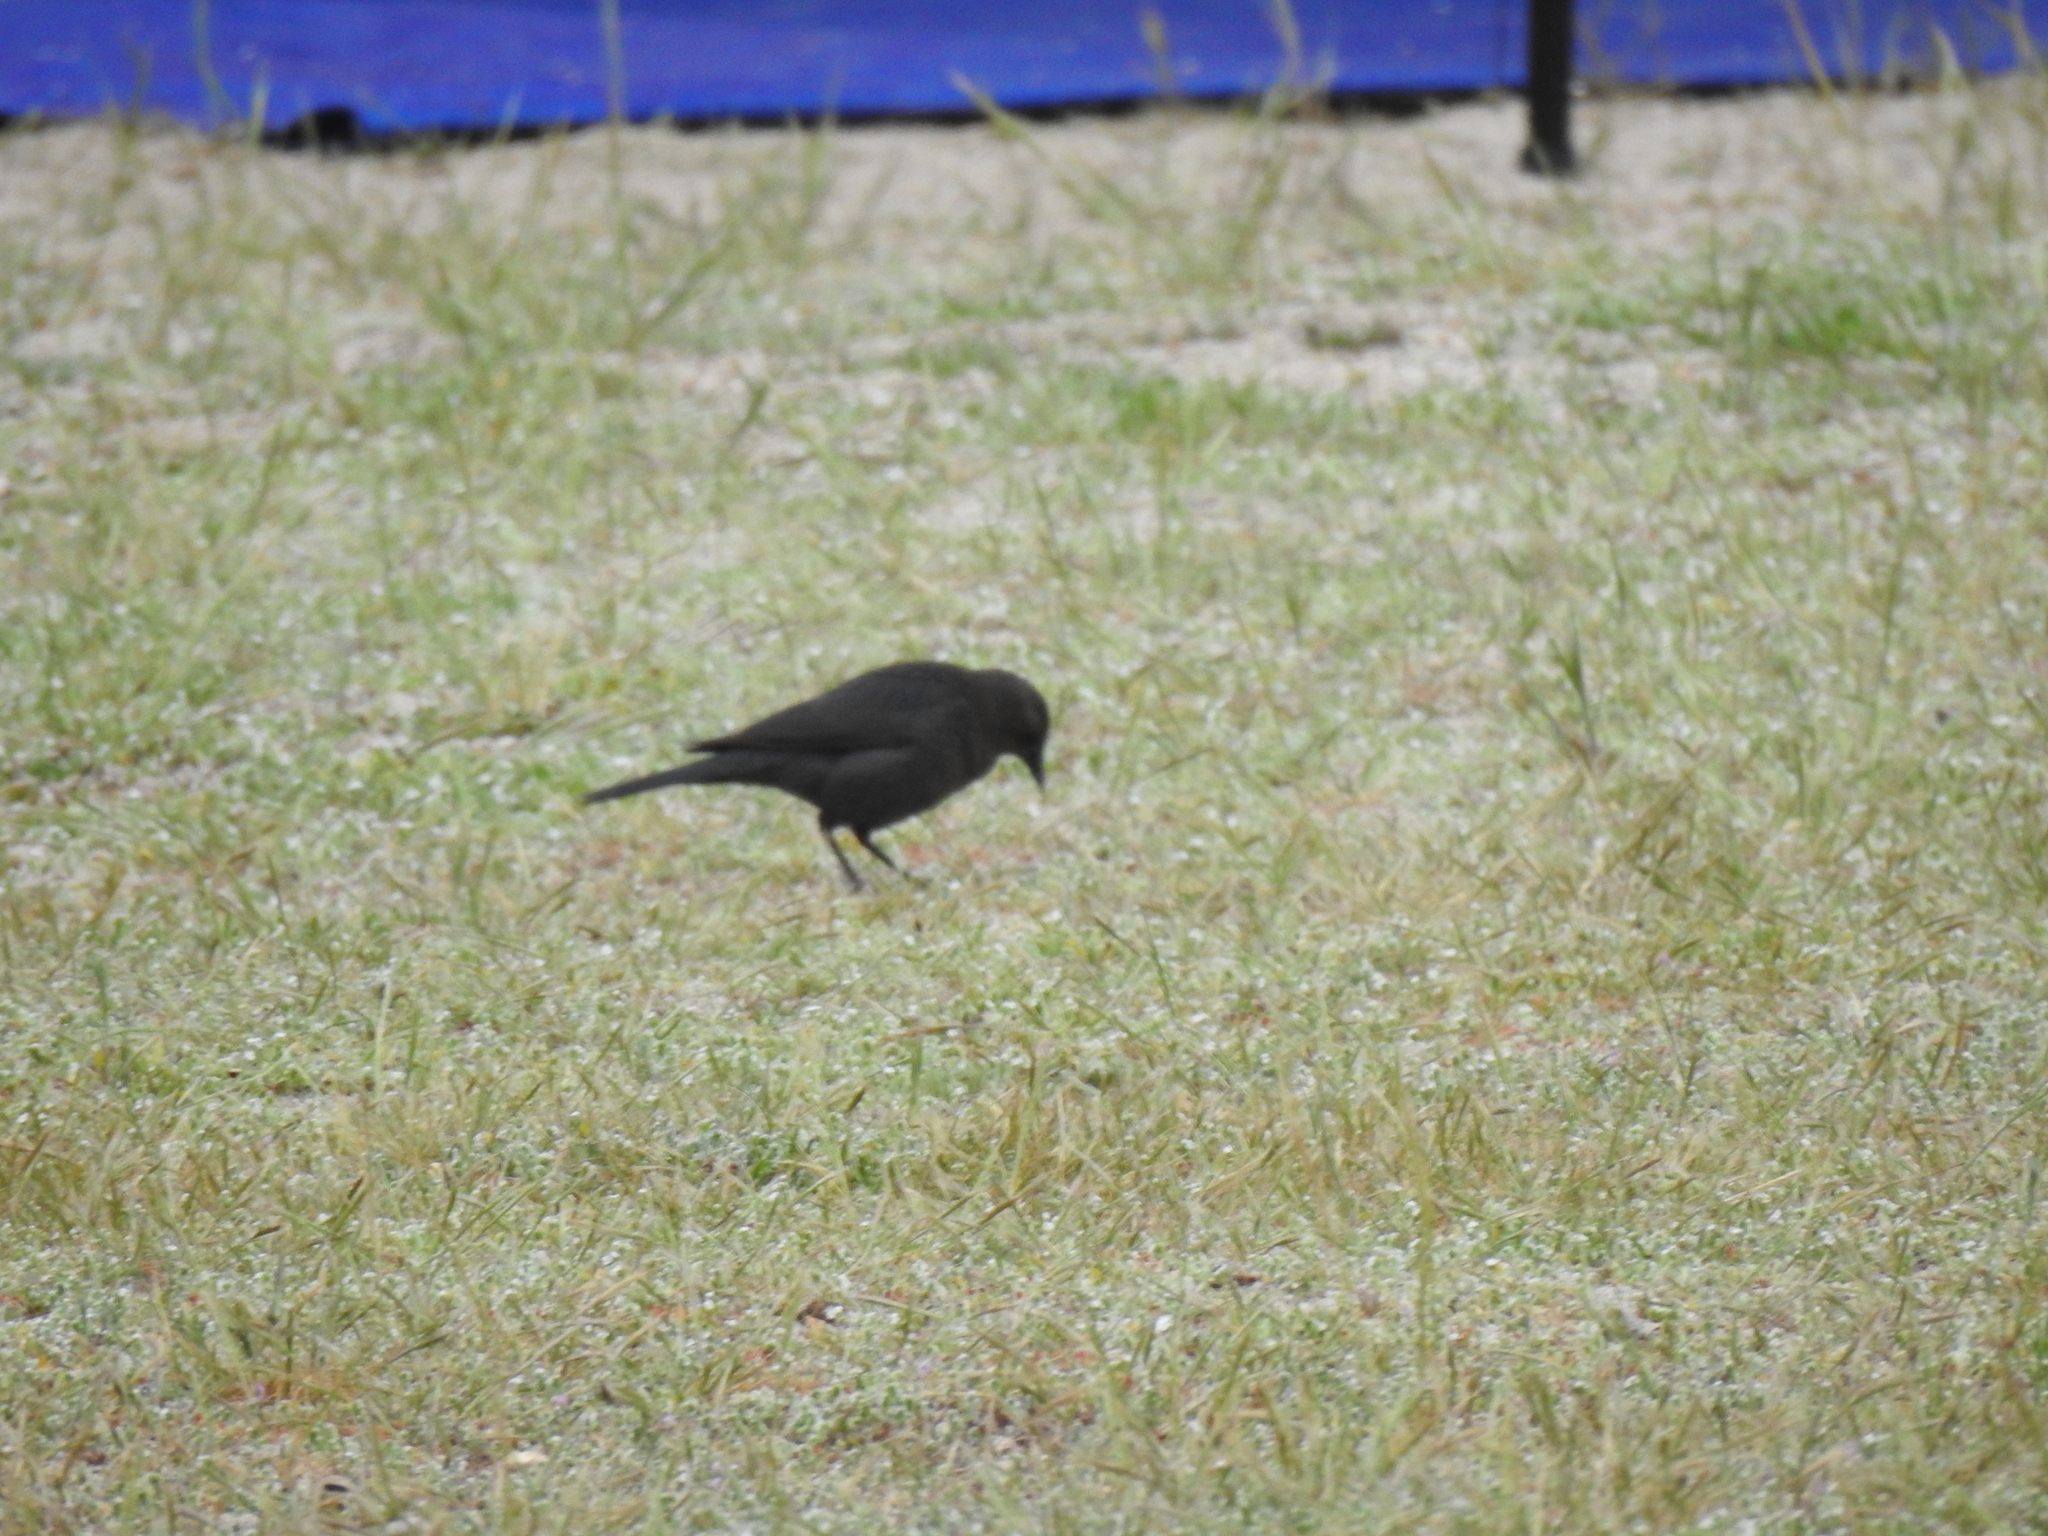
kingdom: Animalia
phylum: Chordata
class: Aves
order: Passeriformes
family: Icteridae
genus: Euphagus
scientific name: Euphagus cyanocephalus
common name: Brewer's blackbird
